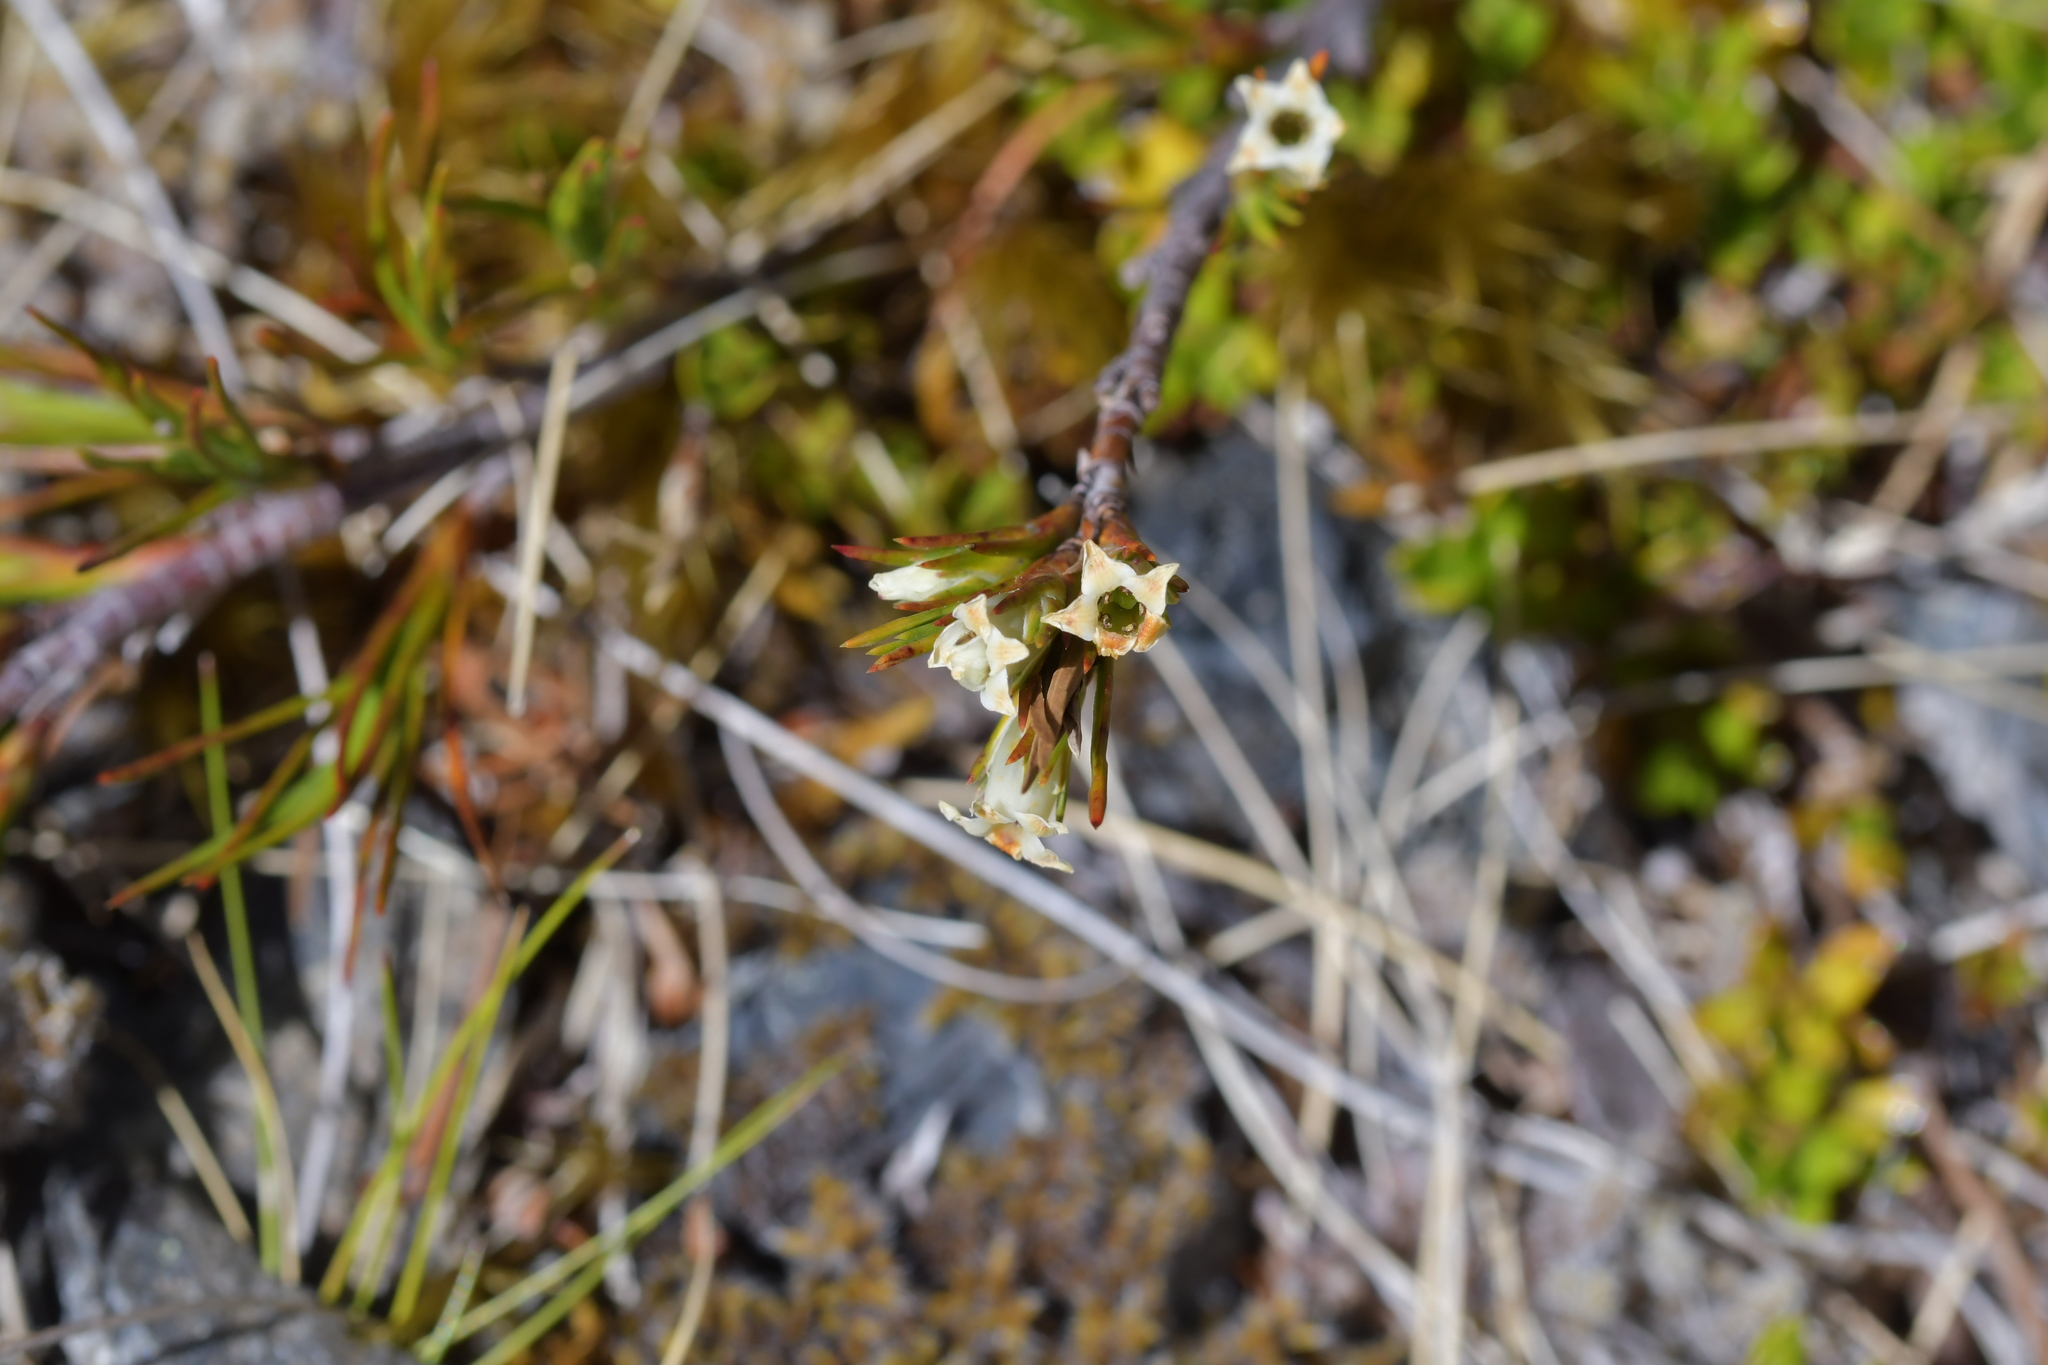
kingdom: Plantae
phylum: Tracheophyta
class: Magnoliopsida
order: Ericales
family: Ericaceae
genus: Dracophyllum
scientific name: Dracophyllum pronum
